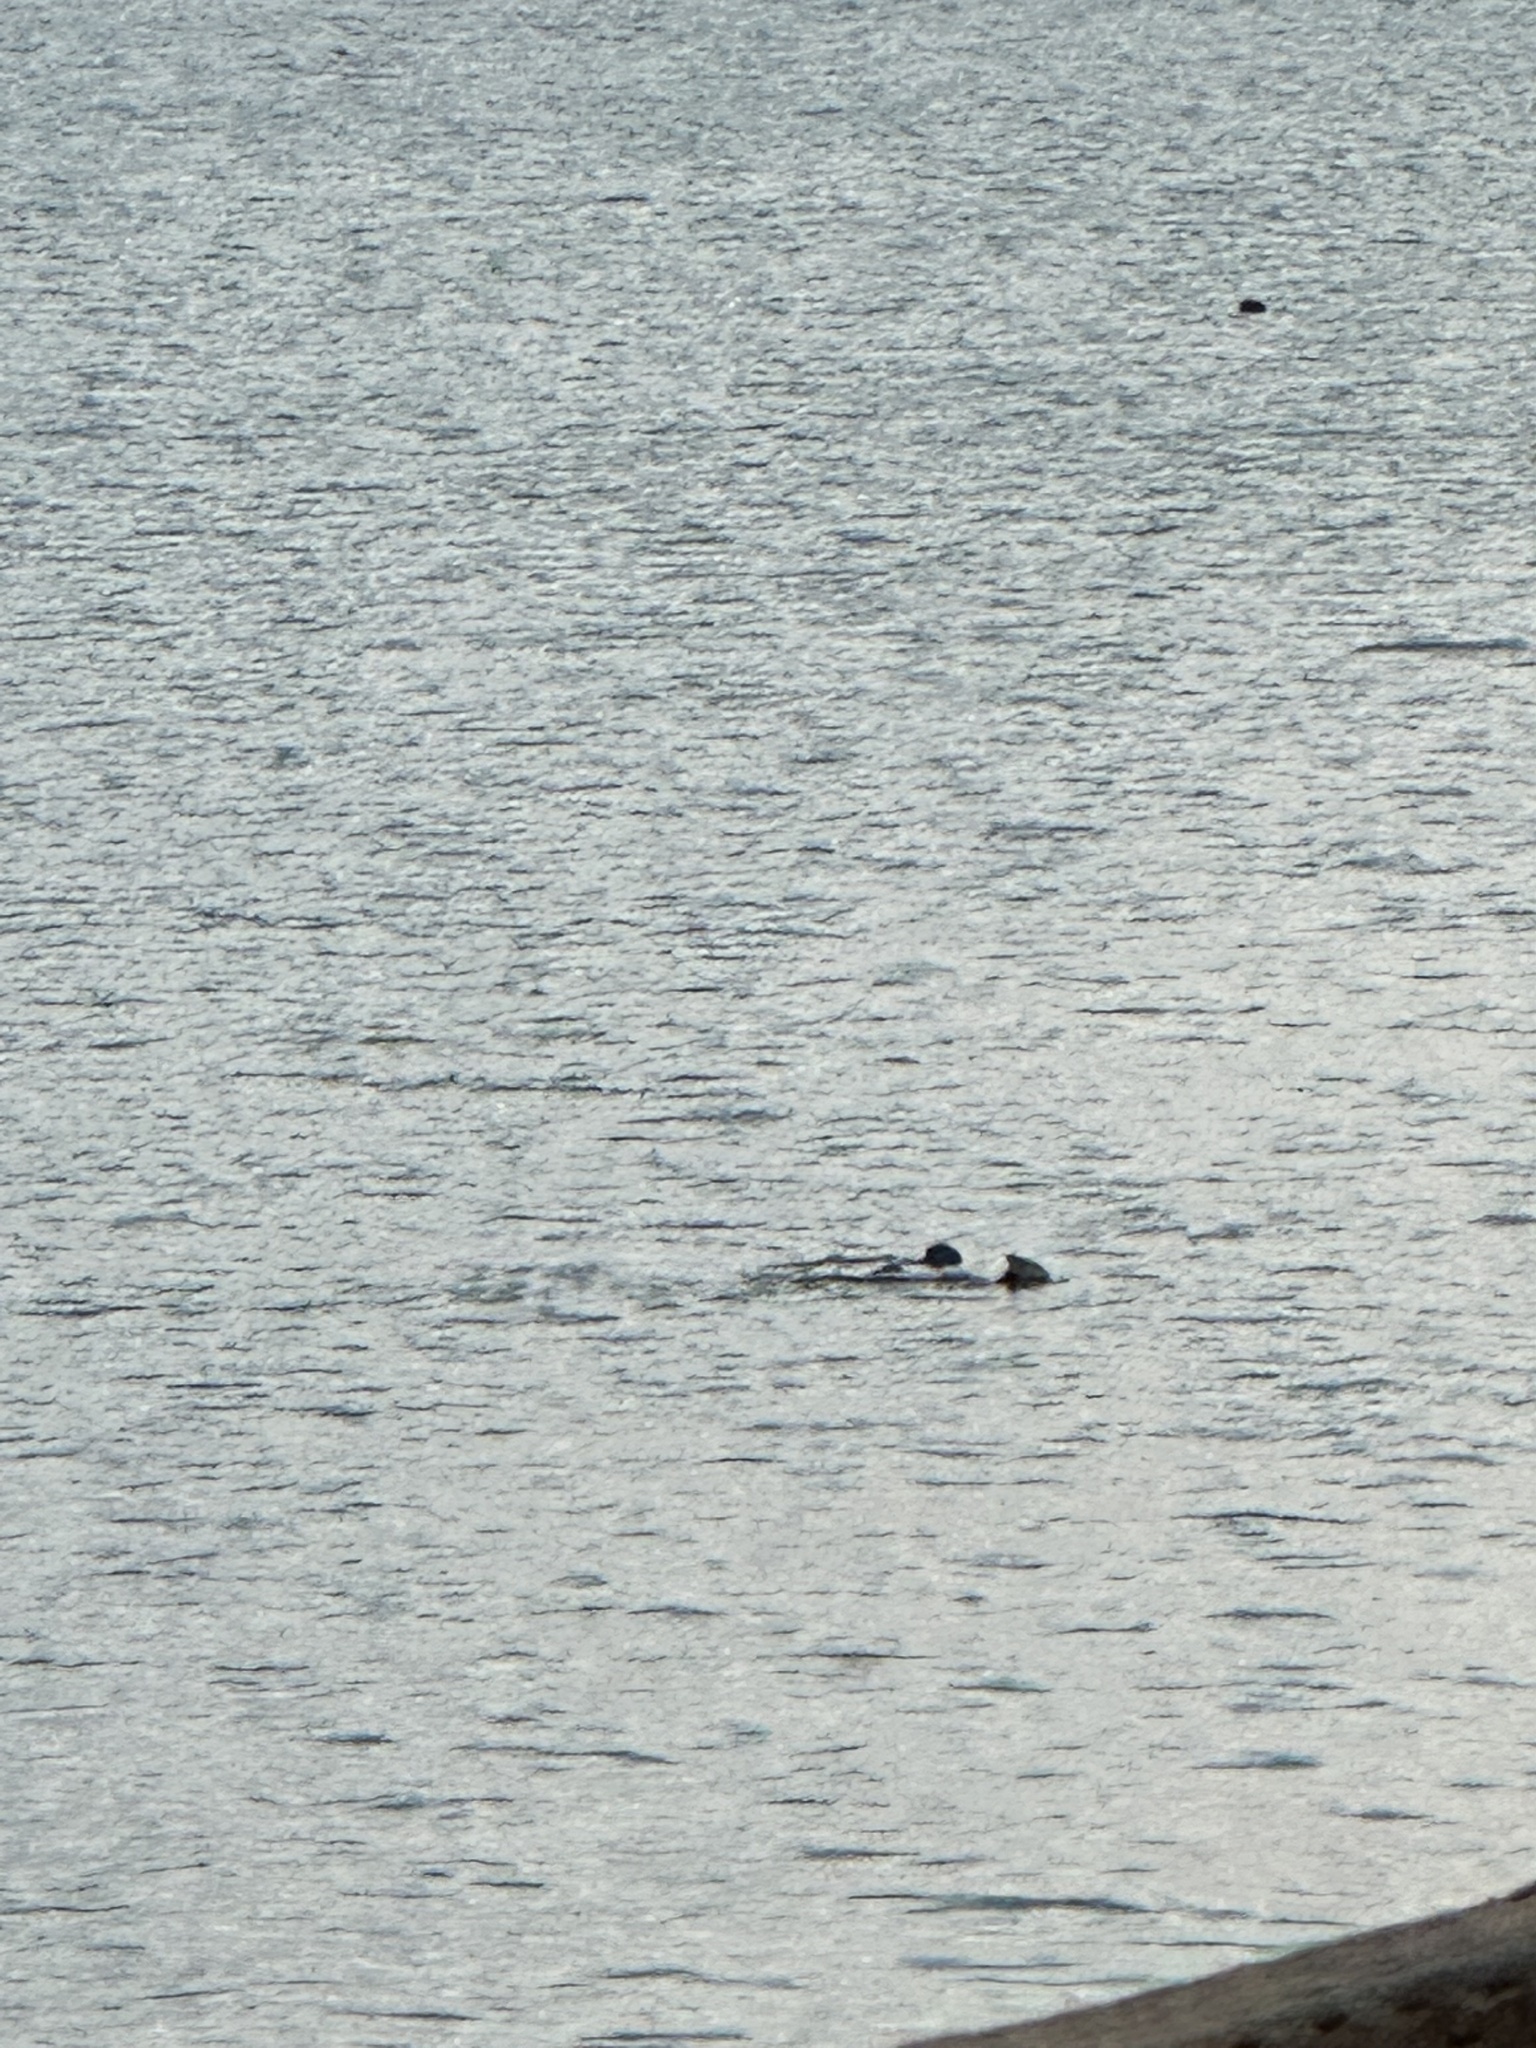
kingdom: Animalia
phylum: Chordata
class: Mammalia
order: Carnivora
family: Mustelidae
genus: Enhydra
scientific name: Enhydra lutris
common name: Sea otter
